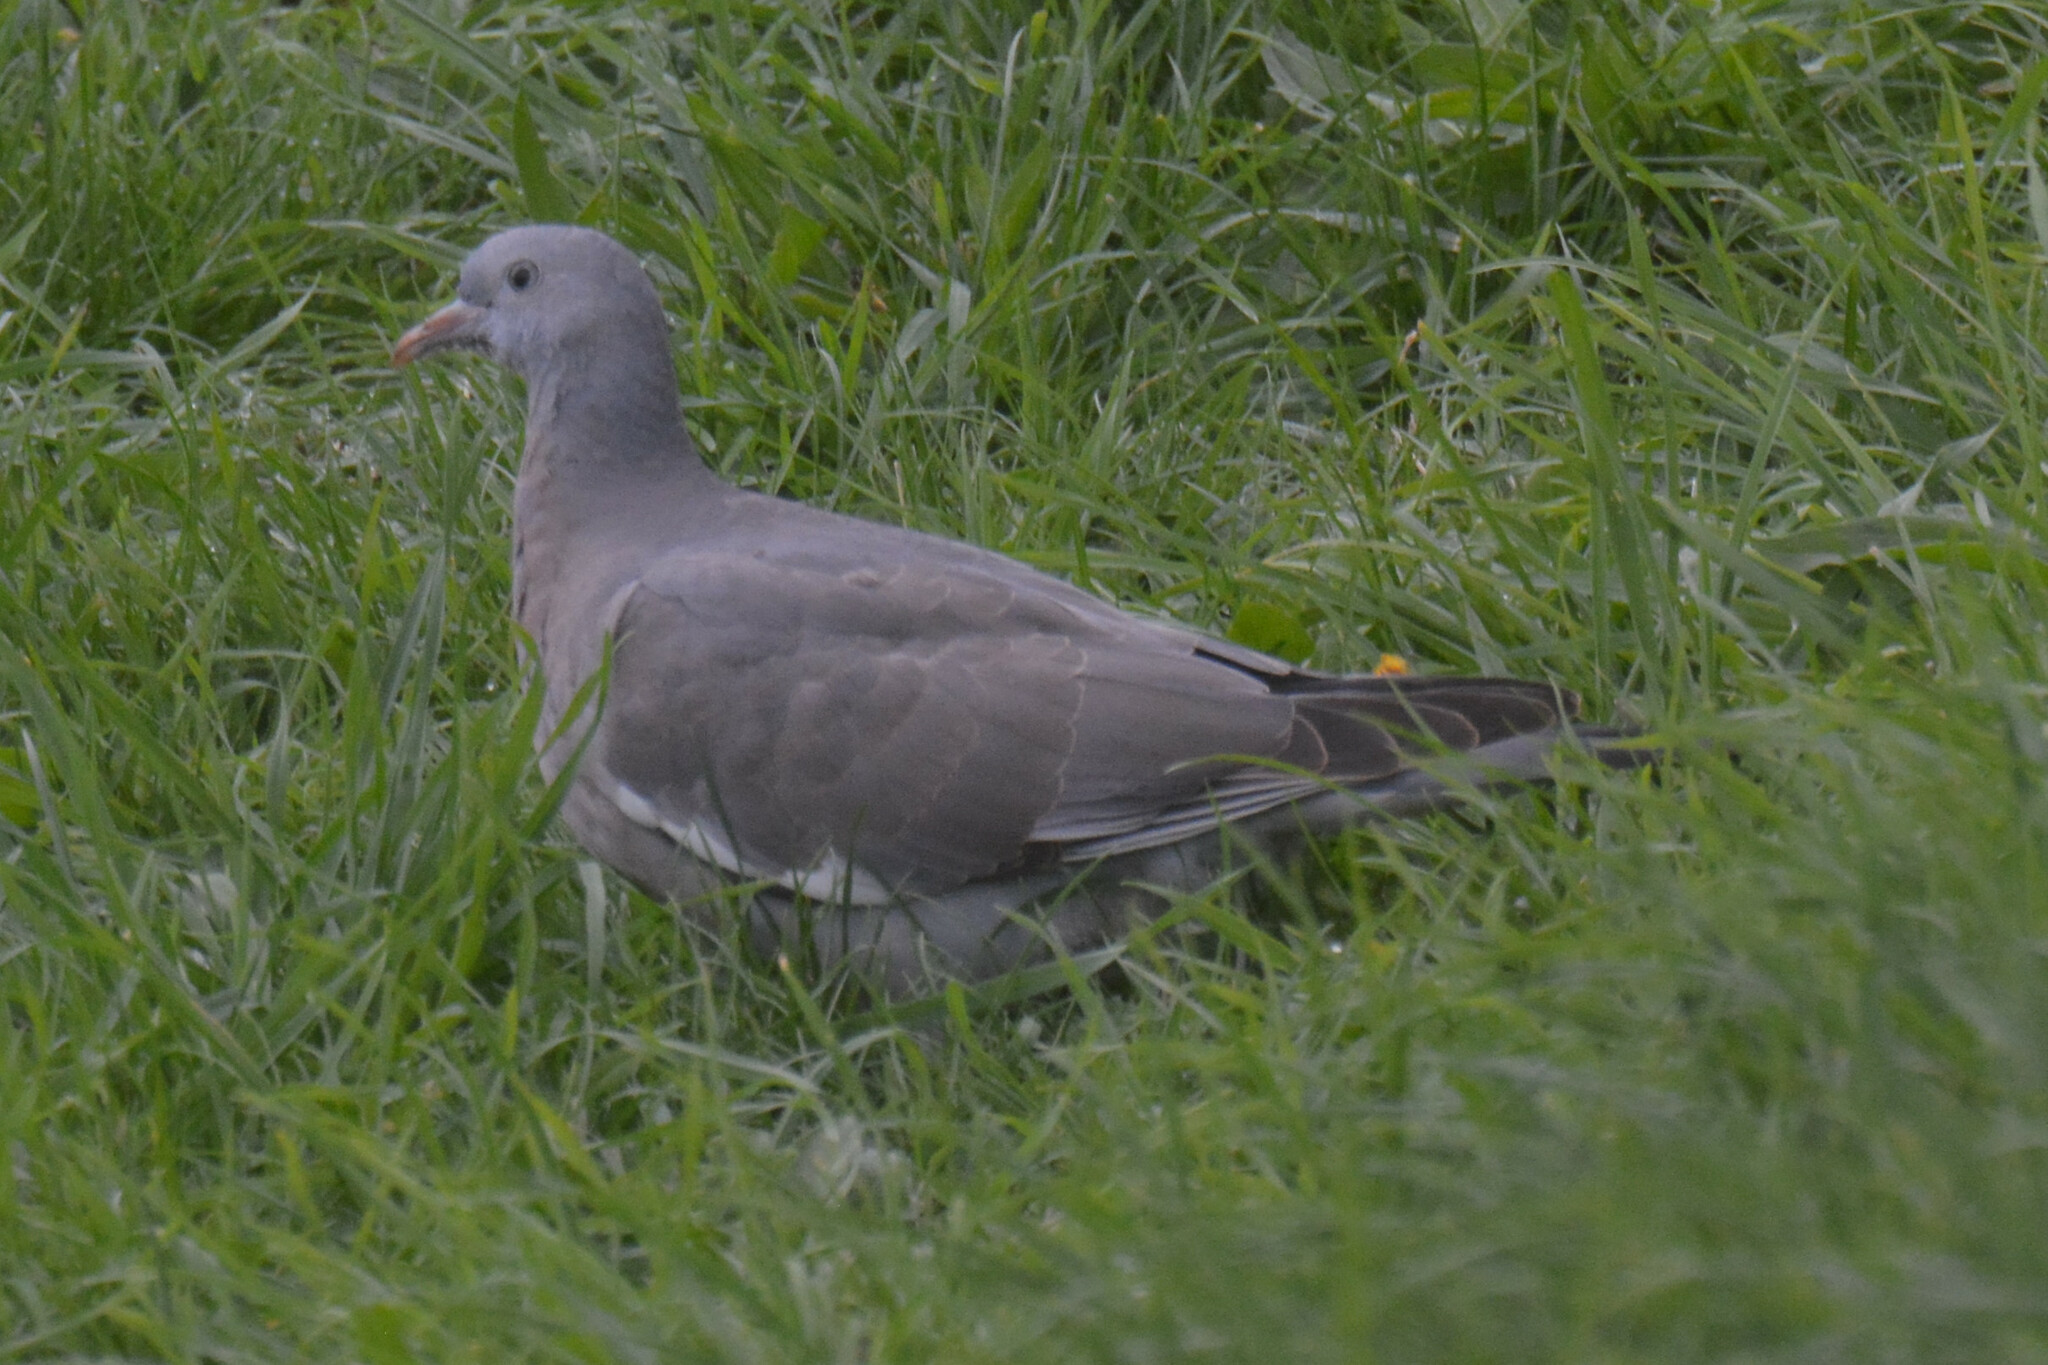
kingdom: Animalia
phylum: Chordata
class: Aves
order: Columbiformes
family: Columbidae
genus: Columba
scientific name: Columba palumbus
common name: Common wood pigeon
